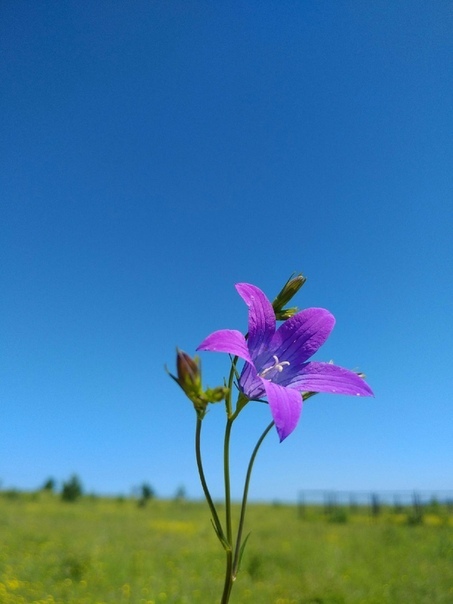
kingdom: Plantae
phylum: Tracheophyta
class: Magnoliopsida
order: Asterales
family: Campanulaceae
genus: Campanula
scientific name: Campanula patula
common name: Spreading bellflower
